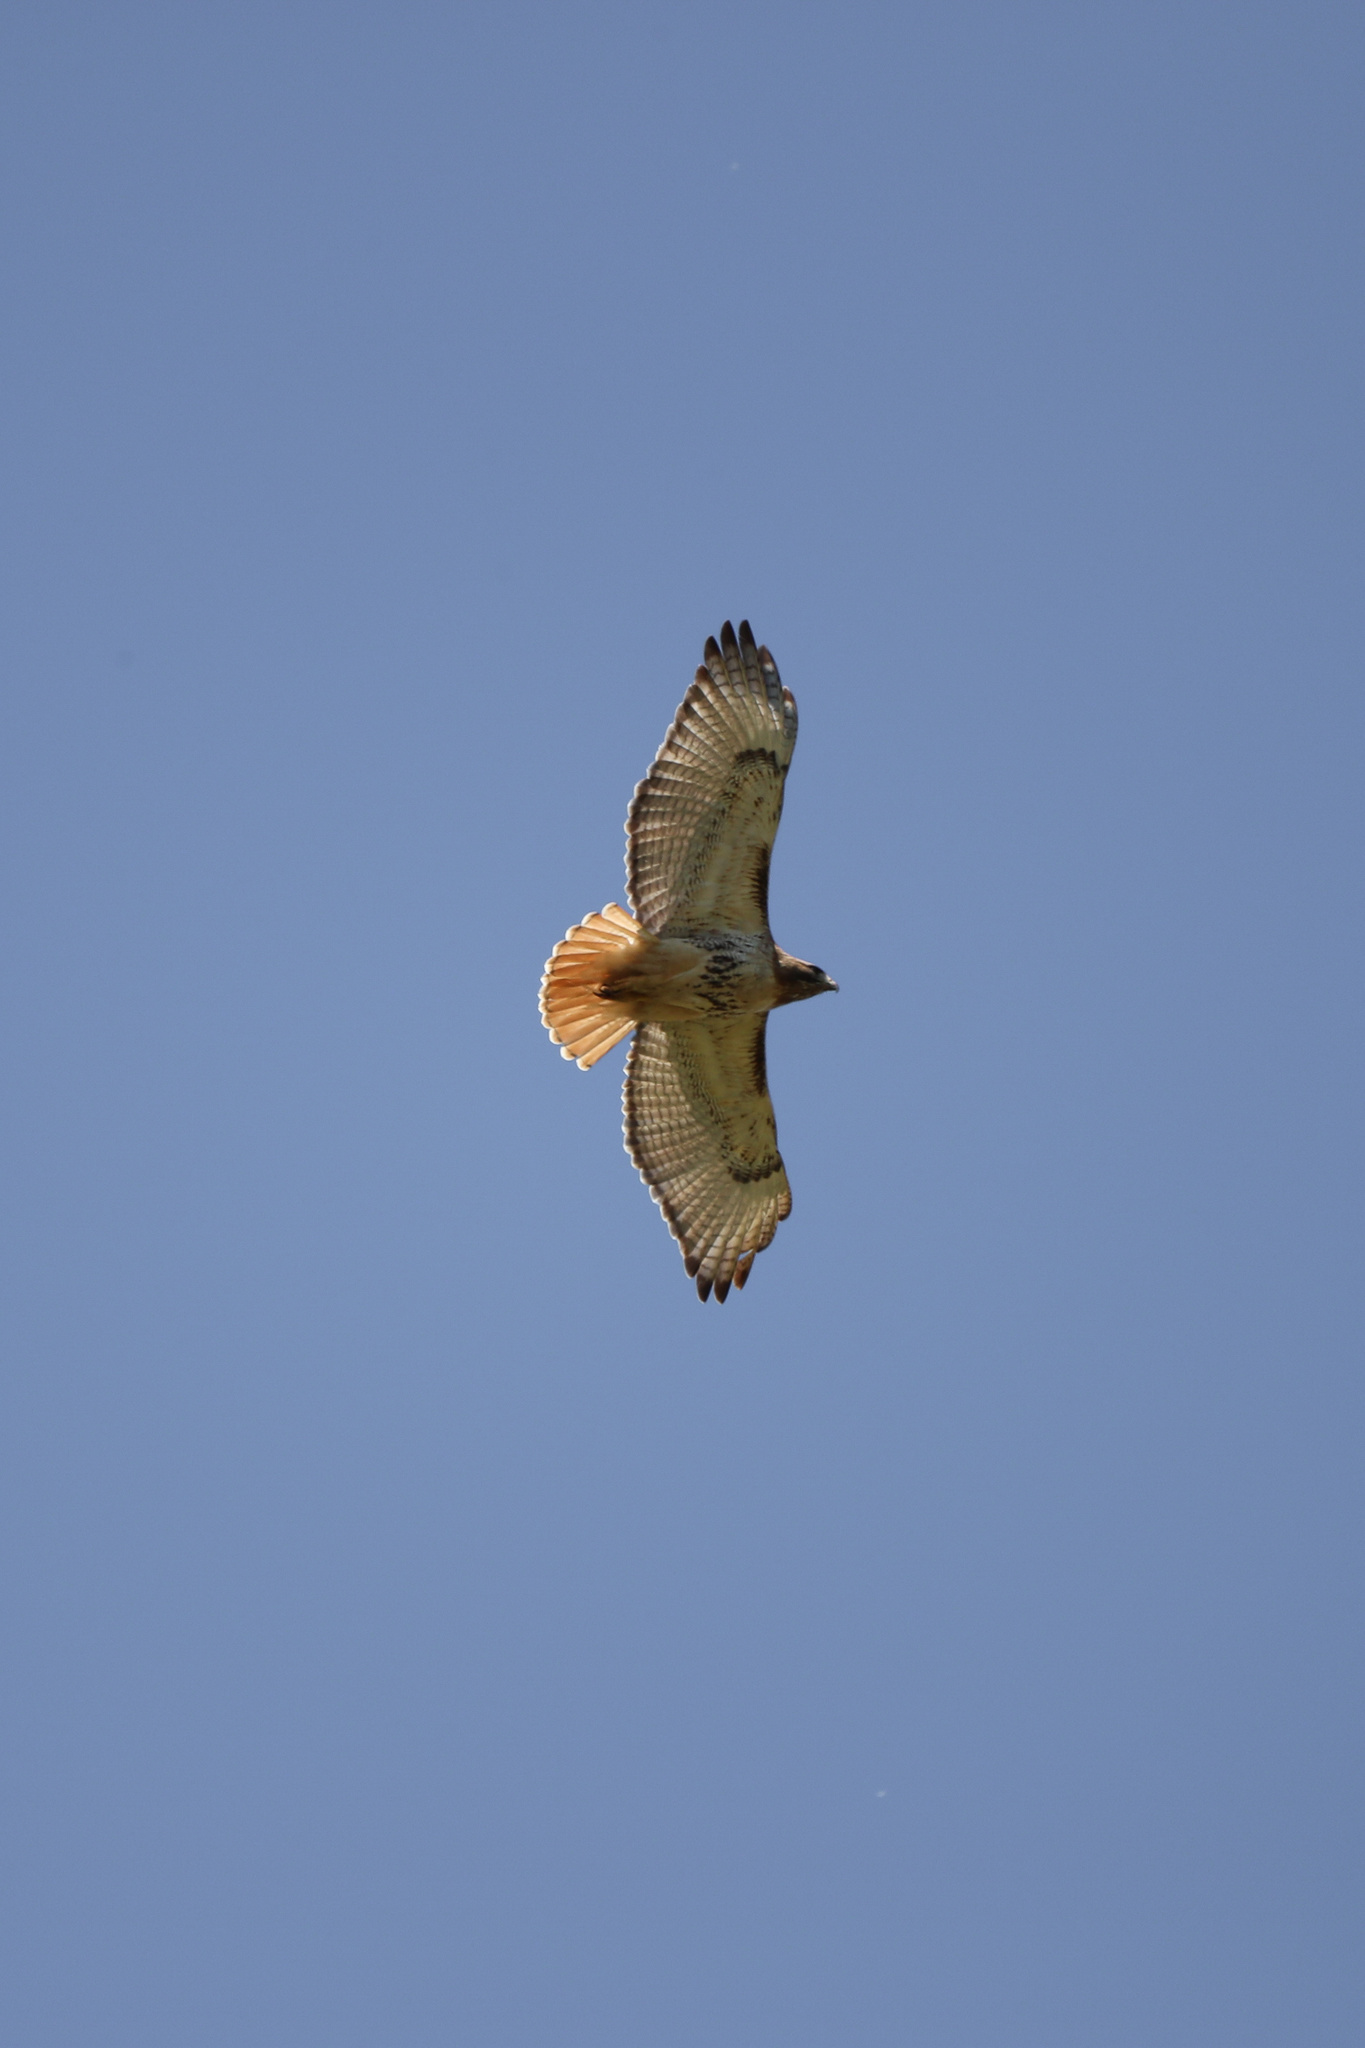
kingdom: Animalia
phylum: Chordata
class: Aves
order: Accipitriformes
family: Accipitridae
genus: Buteo
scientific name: Buteo jamaicensis
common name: Red-tailed hawk
